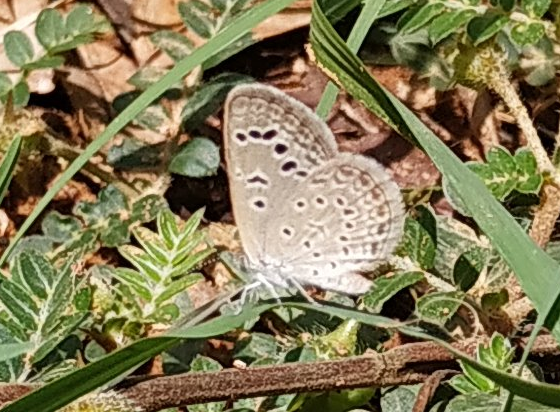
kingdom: Animalia
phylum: Arthropoda
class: Insecta
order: Lepidoptera
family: Lycaenidae
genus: Zizeeria
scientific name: Zizeeria karsandra
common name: Dark grass blue
